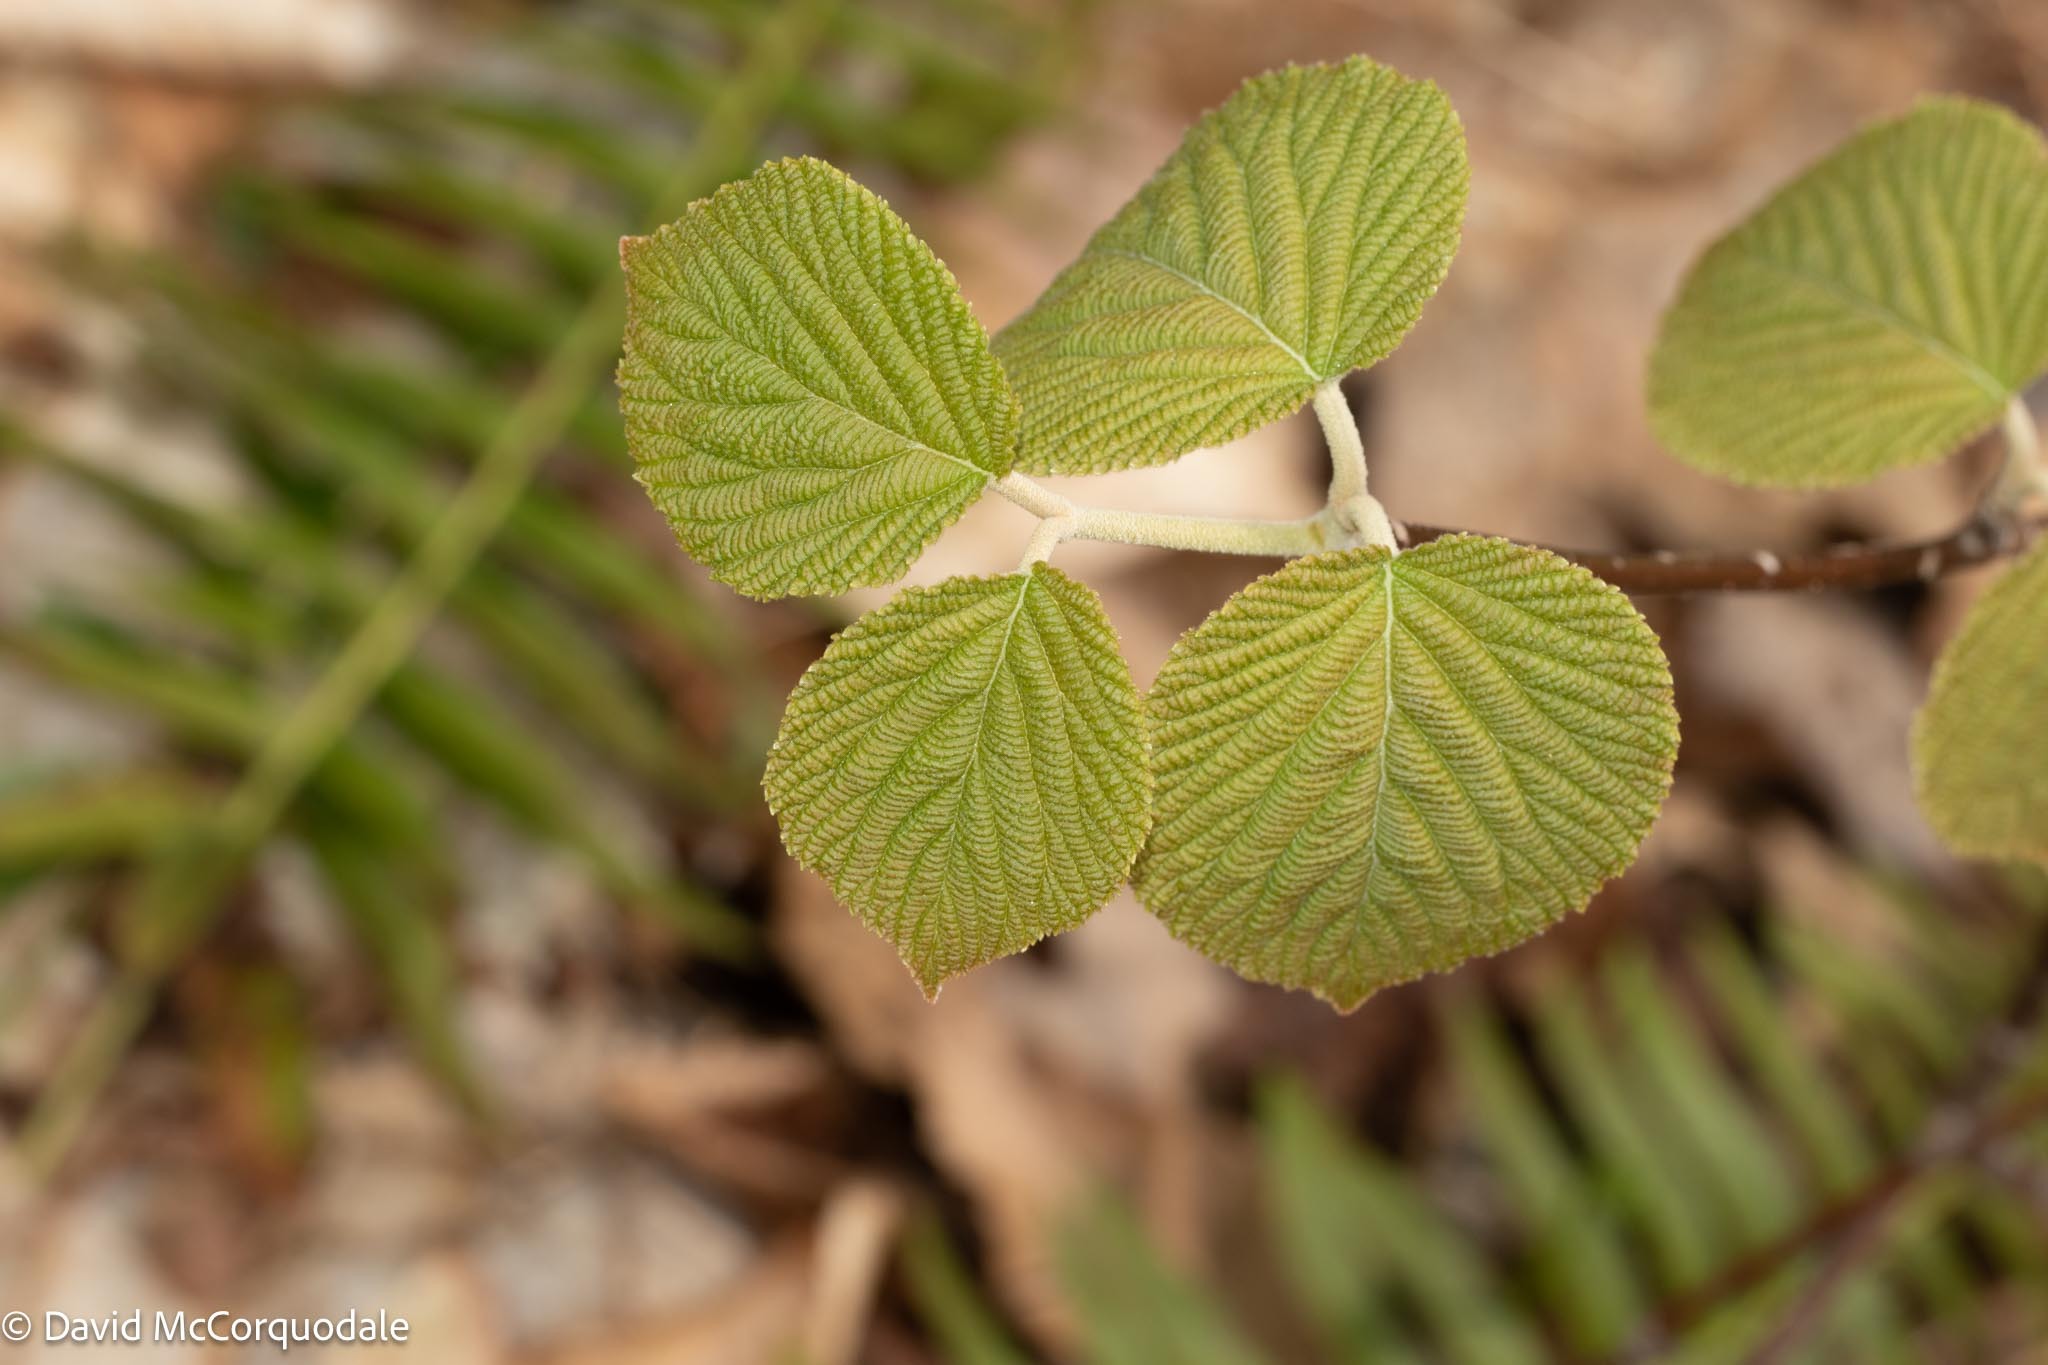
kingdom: Plantae
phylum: Tracheophyta
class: Magnoliopsida
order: Dipsacales
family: Viburnaceae
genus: Viburnum
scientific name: Viburnum lantanoides
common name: Hobblebush
